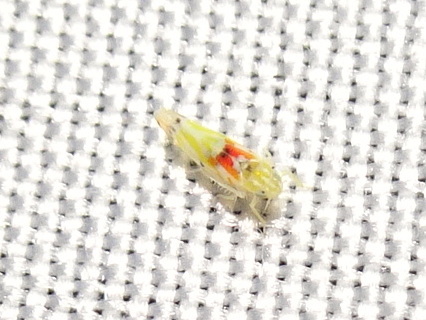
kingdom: Animalia
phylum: Arthropoda
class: Insecta
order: Hemiptera
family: Cicadellidae
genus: Erythroneura
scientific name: Erythroneura octonotata
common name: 8-spotted leafhopper
